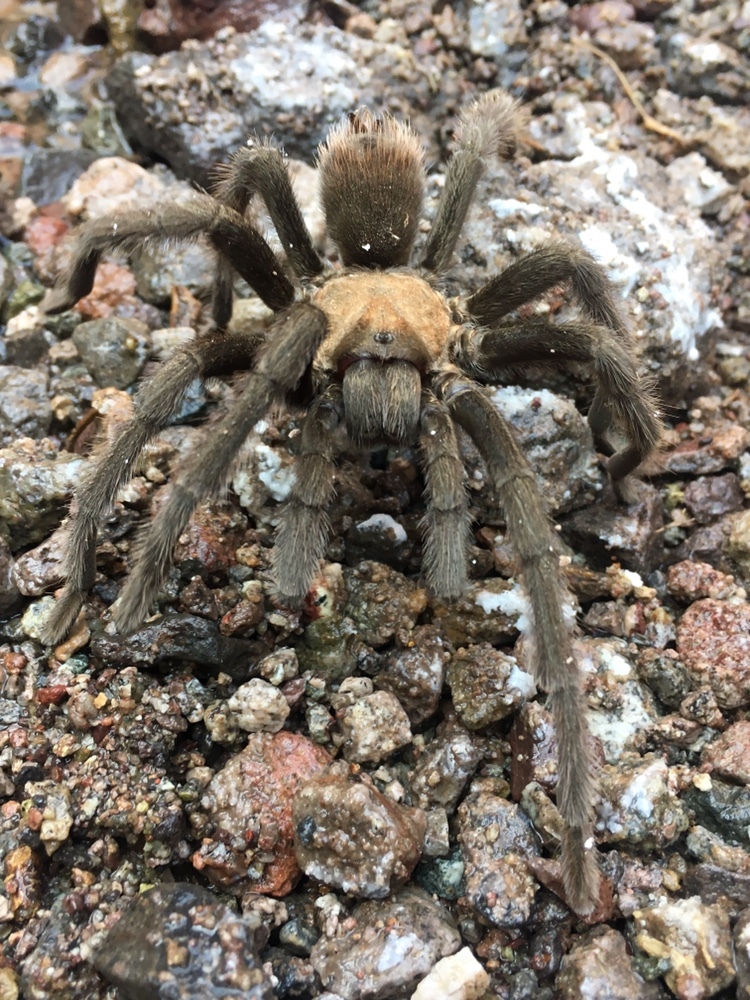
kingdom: Animalia
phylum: Arthropoda
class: Arachnida
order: Araneae
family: Theraphosidae
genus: Aphonopelma
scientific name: Aphonopelma iodius
